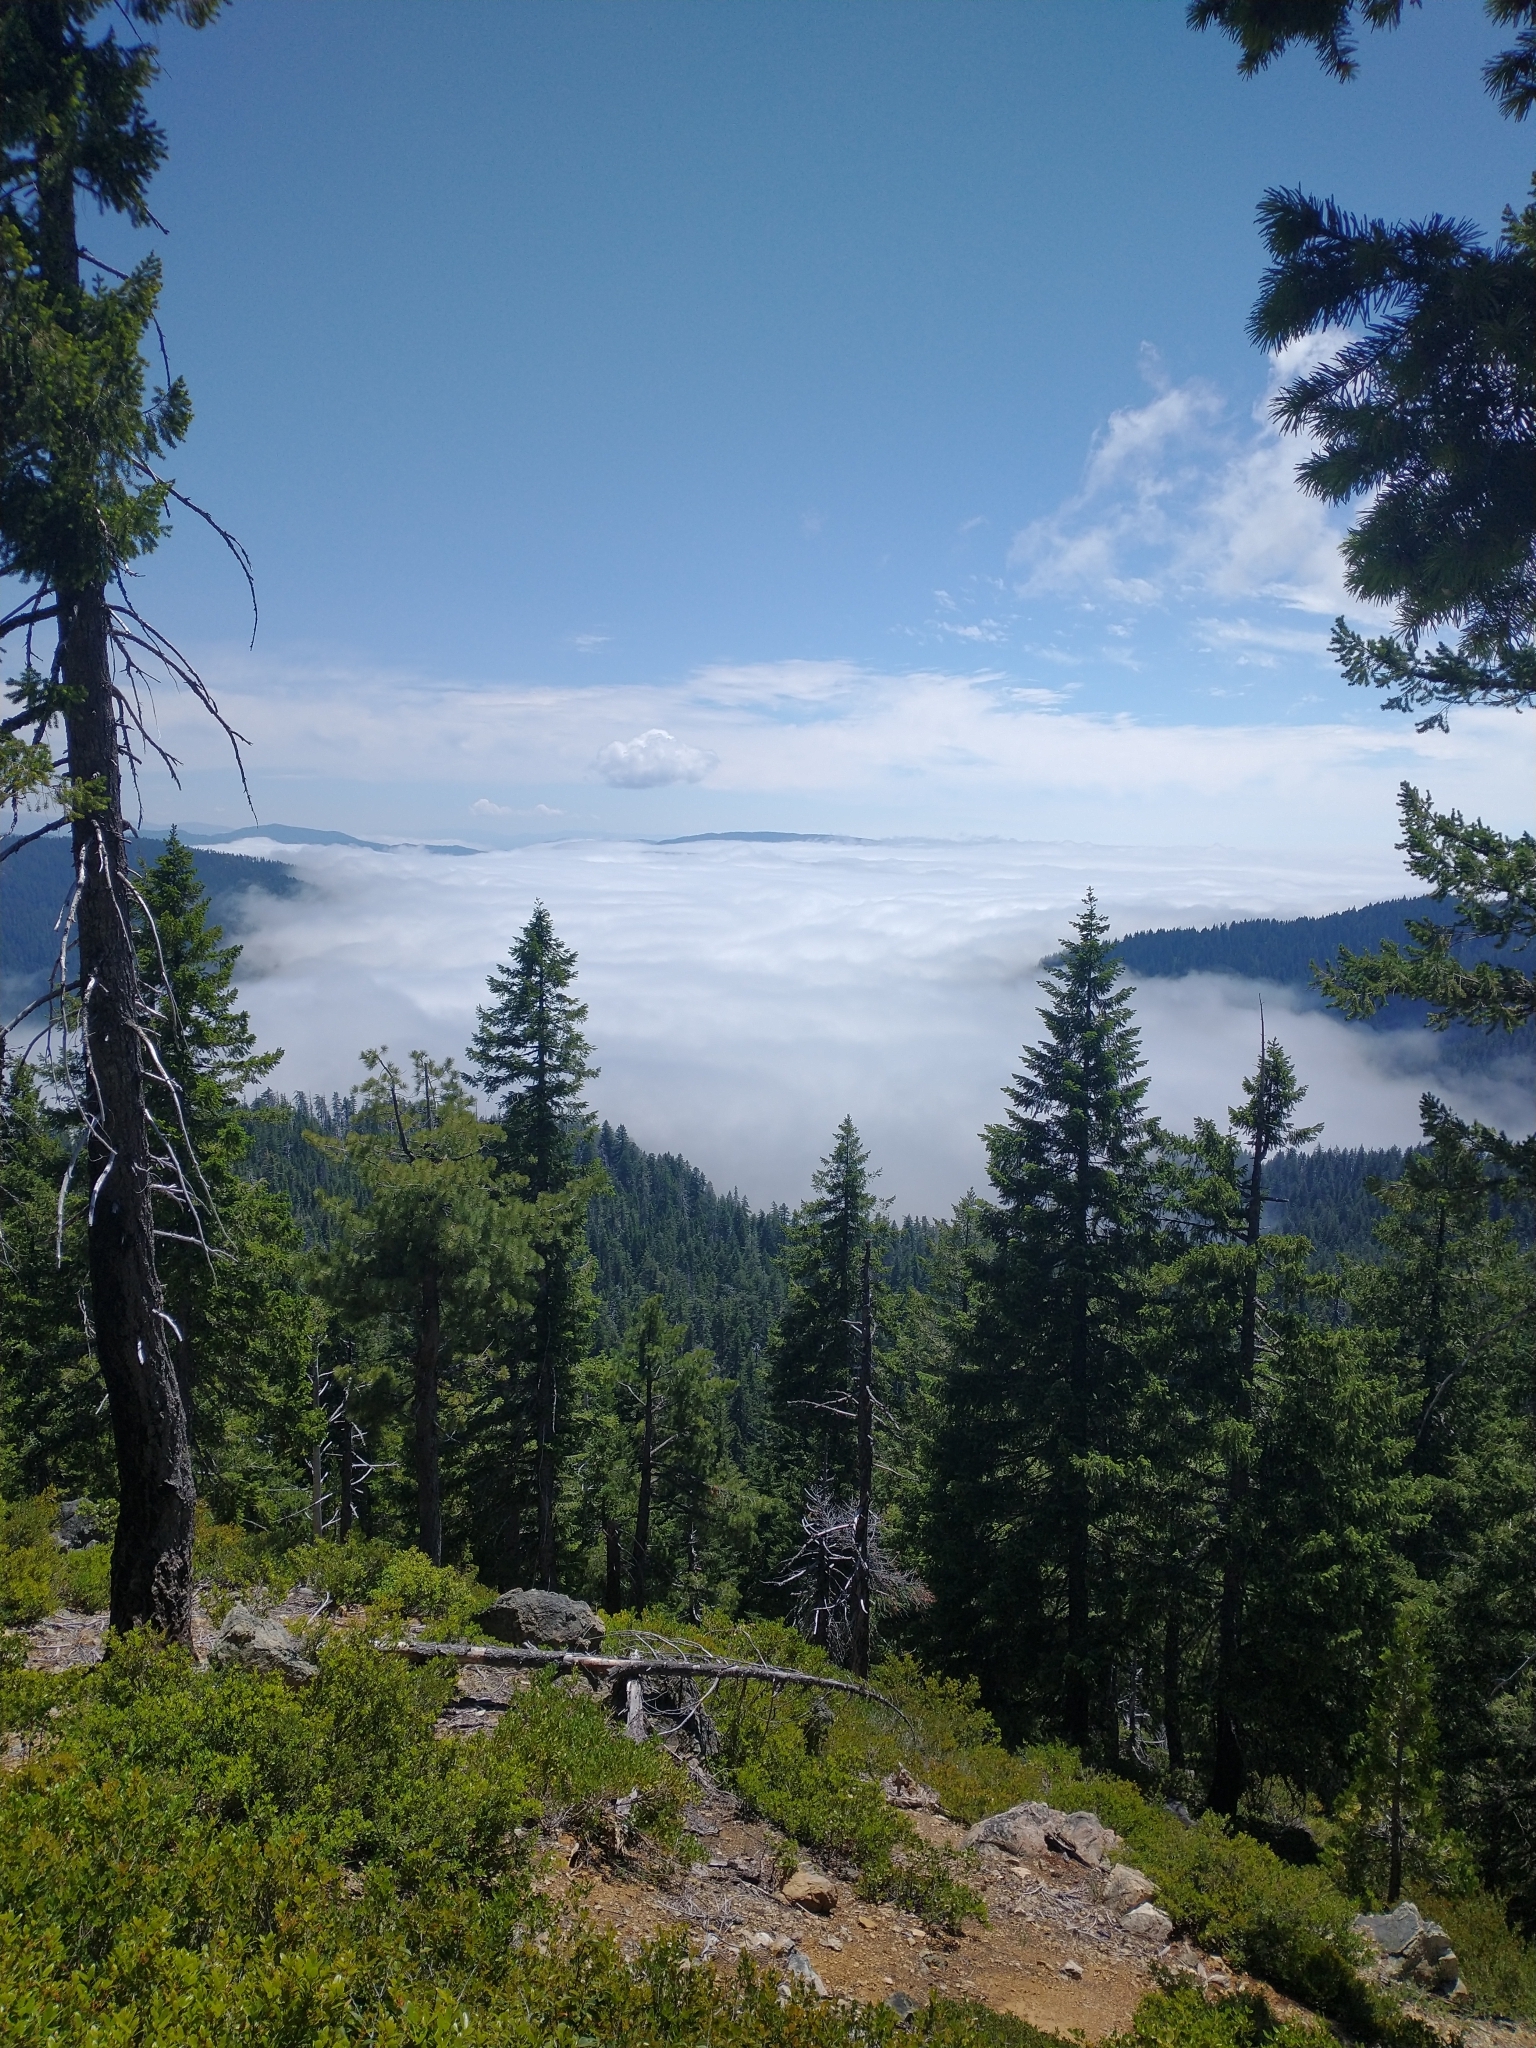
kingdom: Plantae
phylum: Tracheophyta
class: Pinopsida
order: Pinales
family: Pinaceae
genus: Pseudotsuga
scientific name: Pseudotsuga menziesii
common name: Douglas fir
